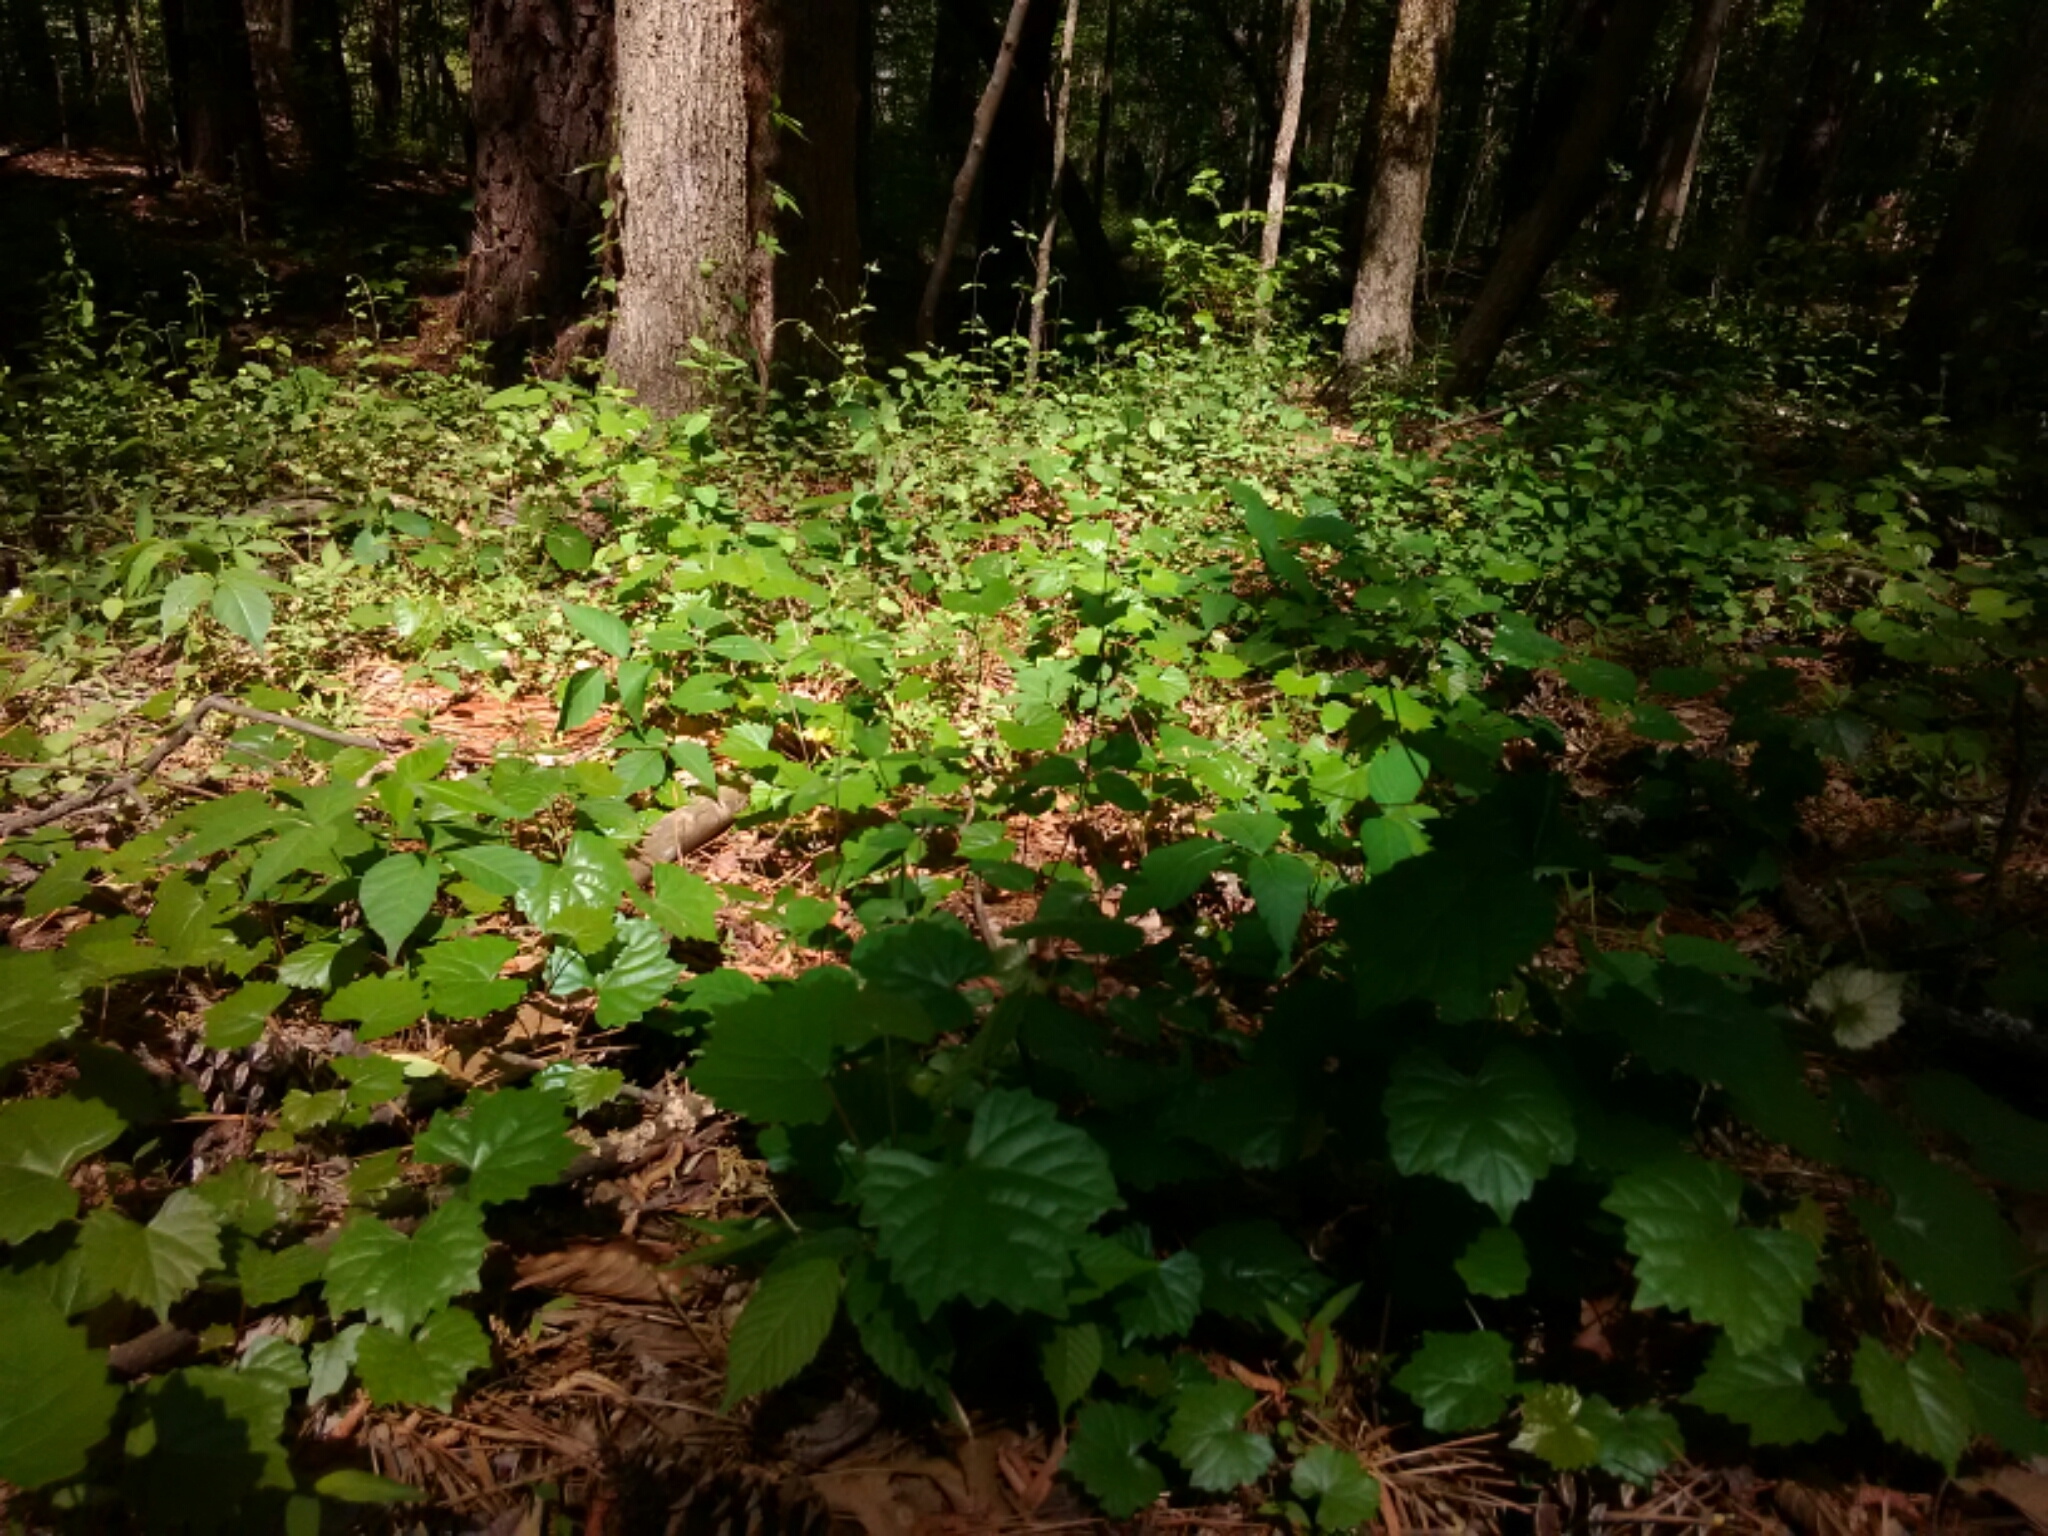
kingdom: Plantae
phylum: Tracheophyta
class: Magnoliopsida
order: Vitales
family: Vitaceae
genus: Vitis
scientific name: Vitis rotundifolia
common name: Muscadine grape
